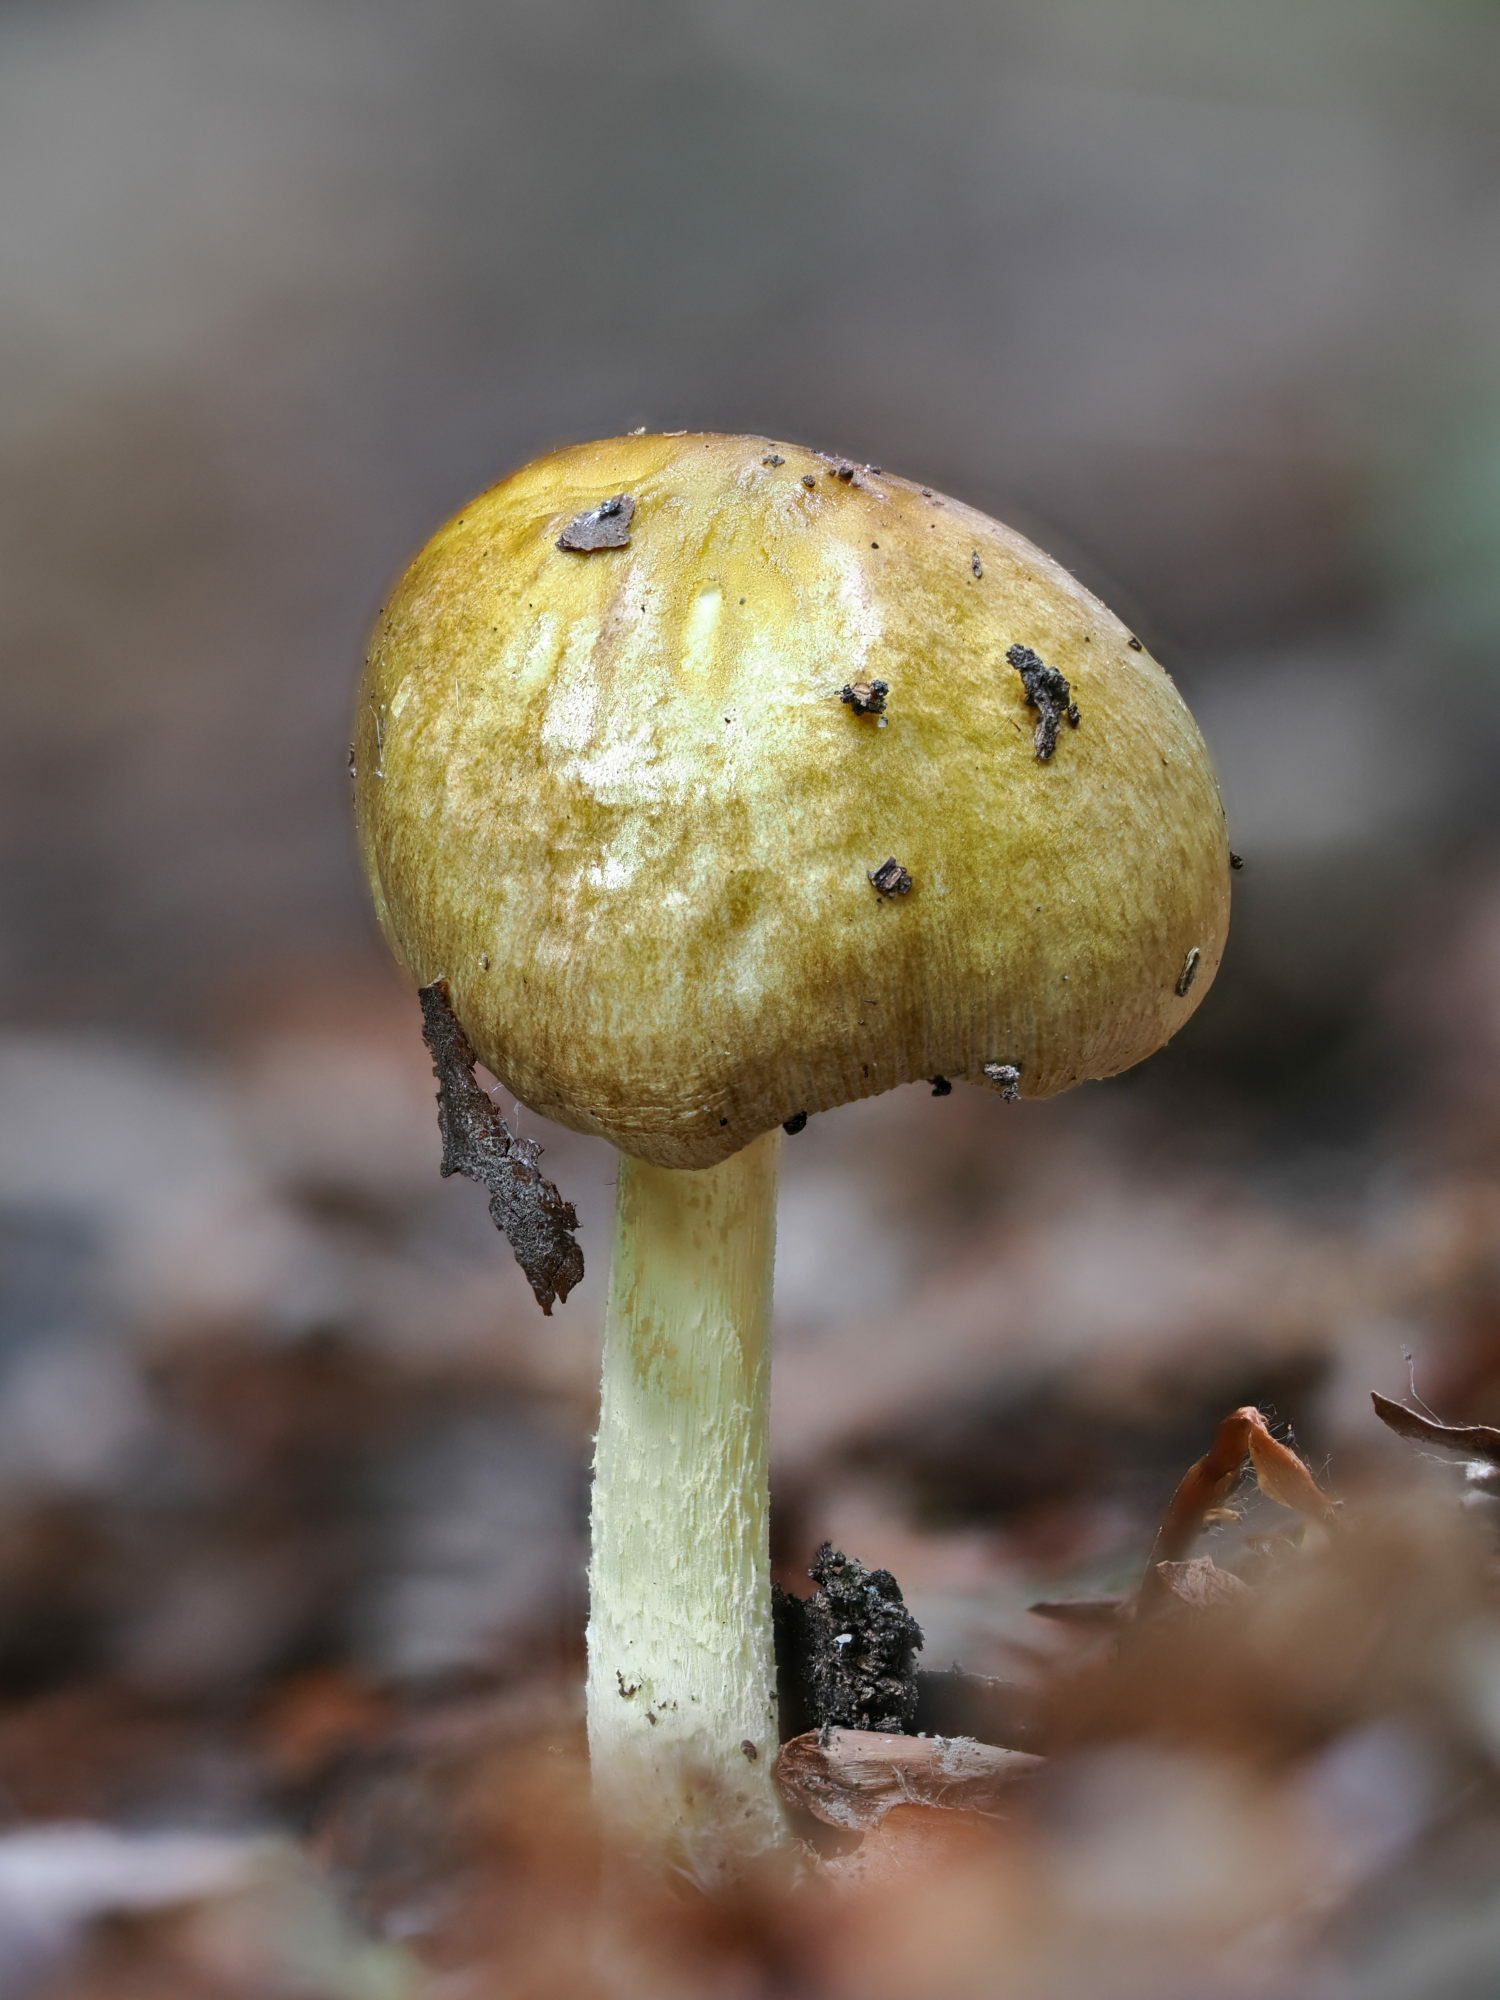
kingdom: Fungi
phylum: Basidiomycota
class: Agaricomycetes
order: Agaricales
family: Bolbitiaceae
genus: Bolbitius
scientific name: Bolbitius titubans
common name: Yellow fieldcap
